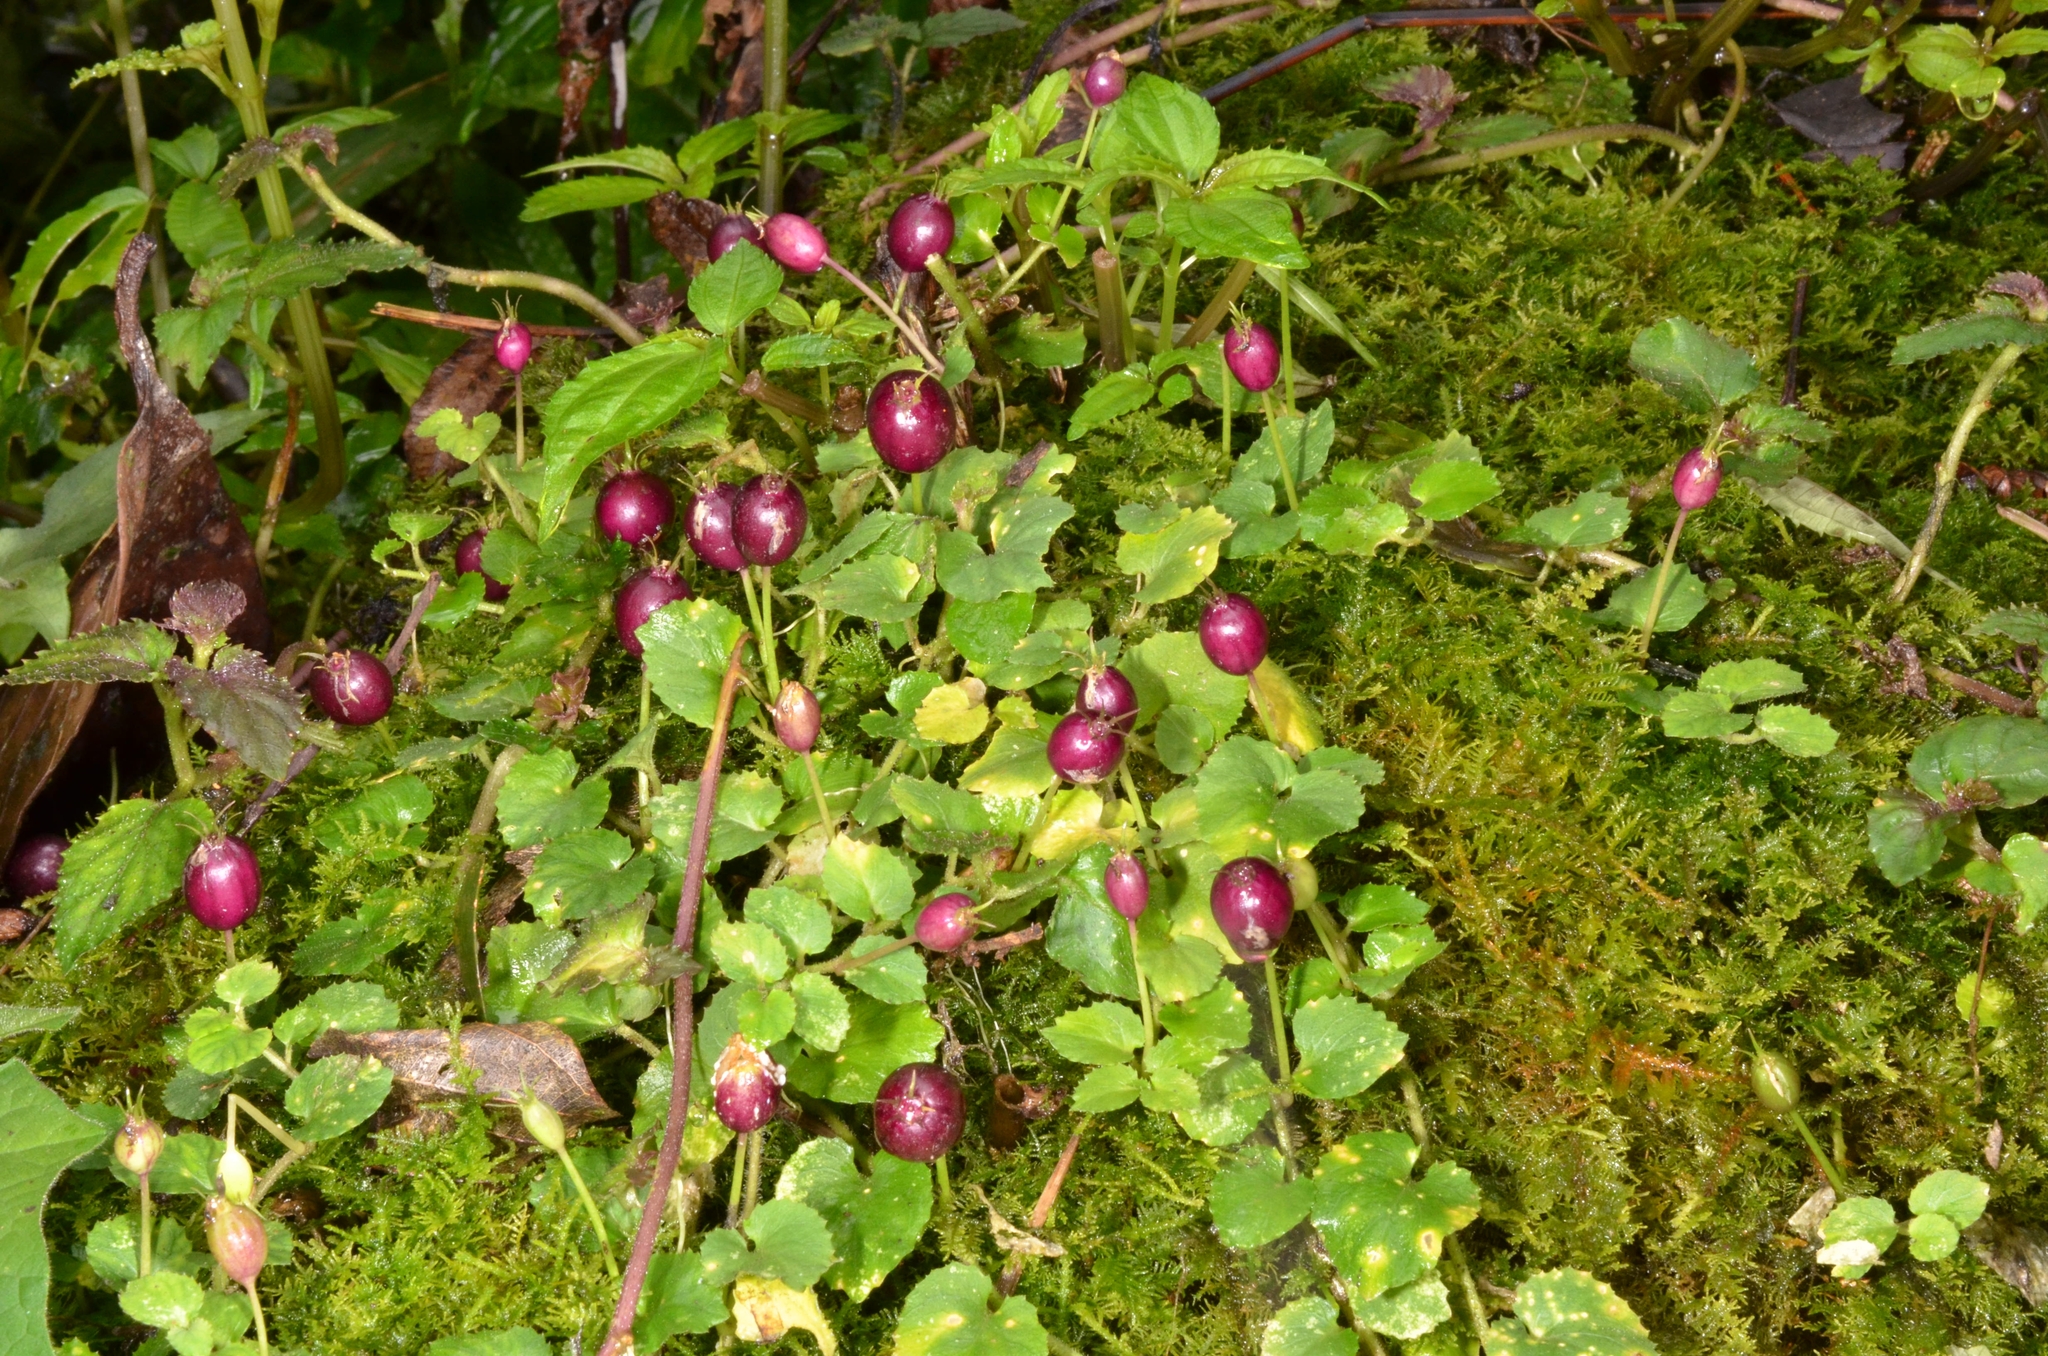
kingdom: Plantae
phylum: Tracheophyta
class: Magnoliopsida
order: Asterales
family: Campanulaceae
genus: Lobelia
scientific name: Lobelia nummularia
